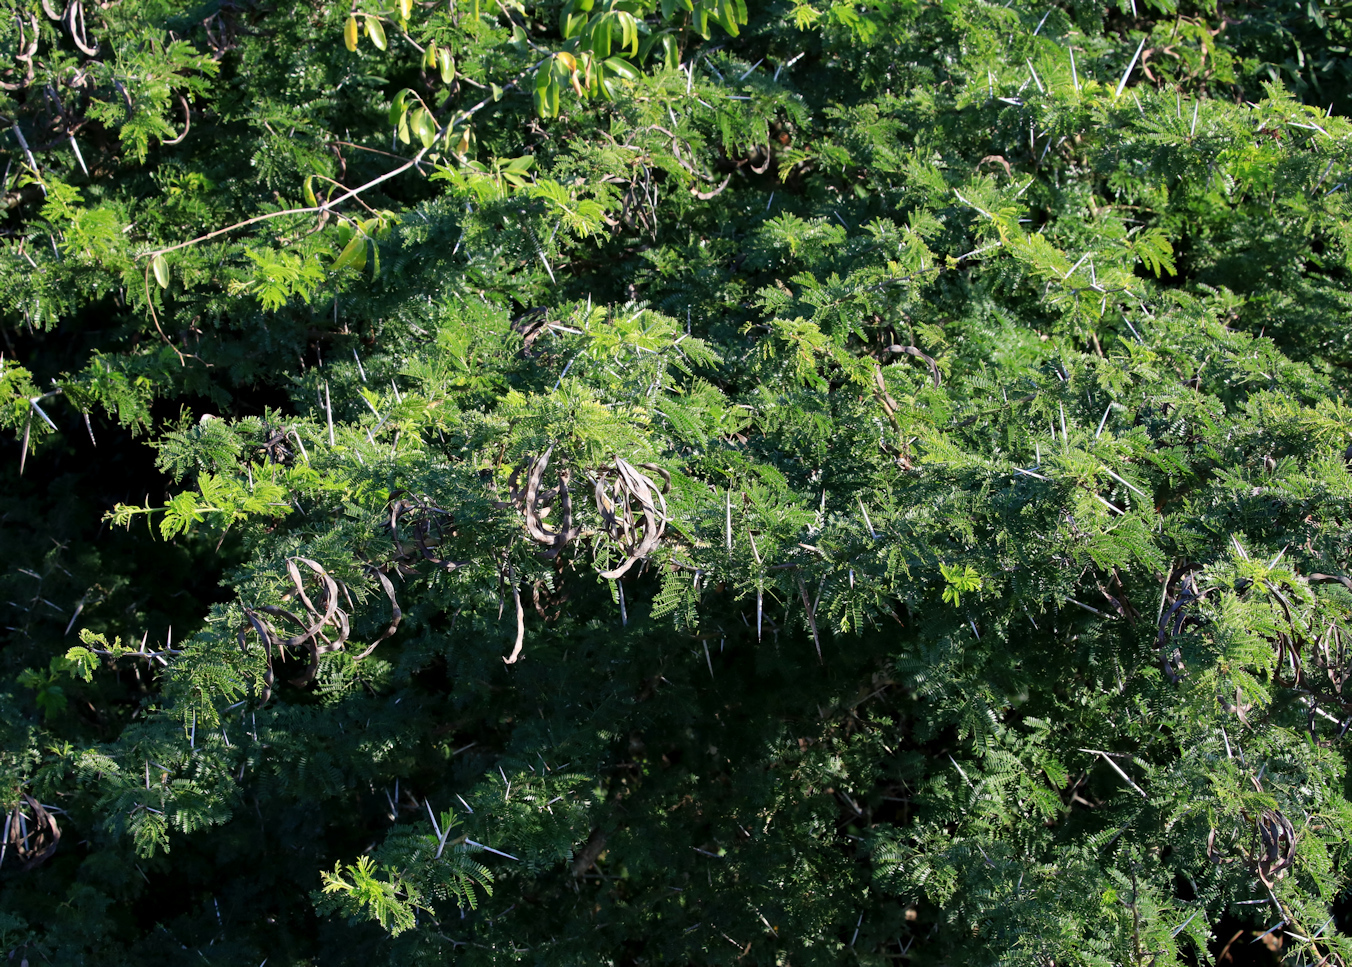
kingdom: Plantae
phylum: Tracheophyta
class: Magnoliopsida
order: Fabales
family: Fabaceae
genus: Vachellia
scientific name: Vachellia kosiensis
